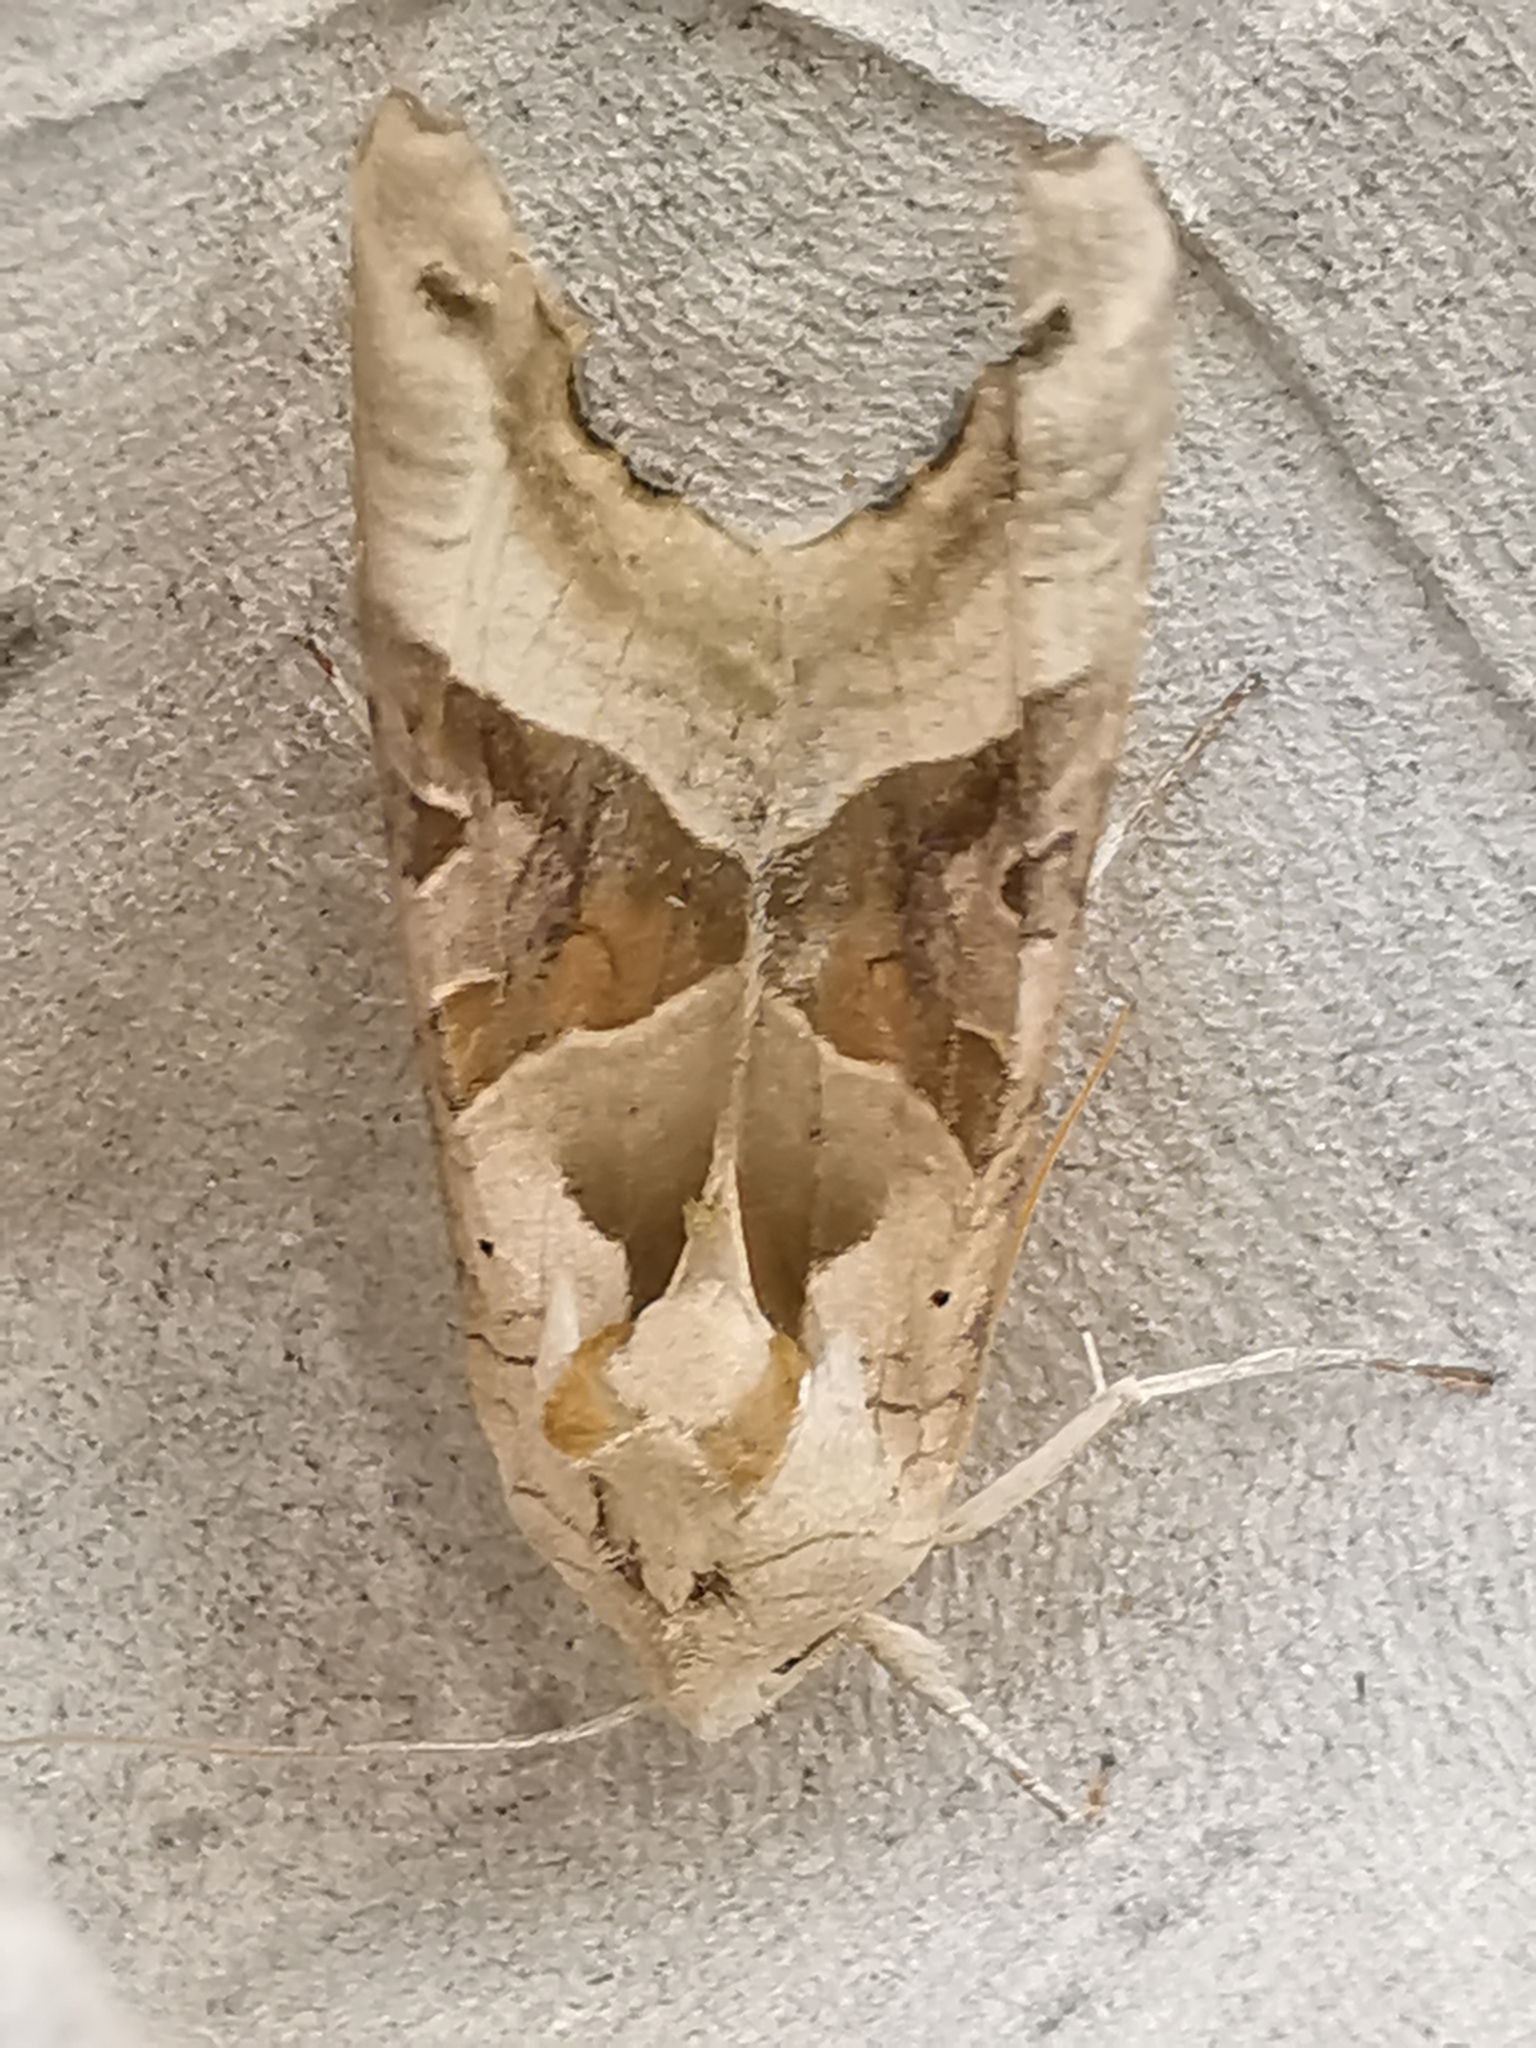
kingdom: Animalia
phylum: Arthropoda
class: Insecta
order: Lepidoptera
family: Noctuidae
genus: Phlogophora
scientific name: Phlogophora meticulosa
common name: Angle shades
